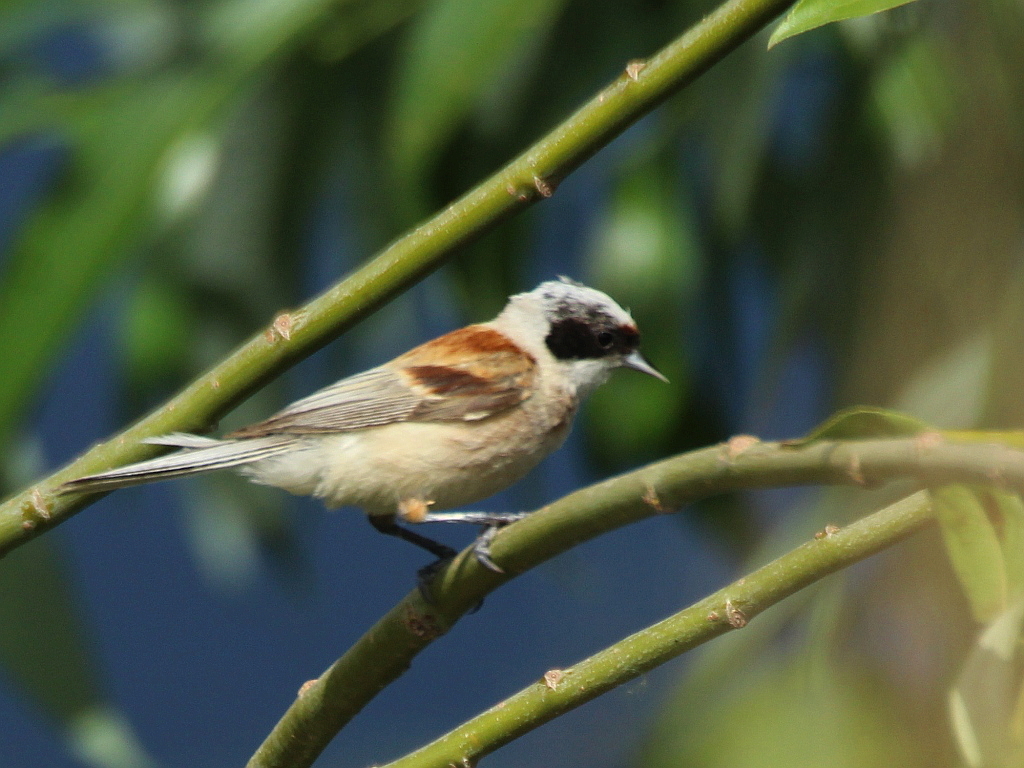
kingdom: Animalia
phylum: Chordata
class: Aves
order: Passeriformes
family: Remizidae
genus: Remiz
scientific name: Remiz pendulinus
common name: Eurasian penduline tit
